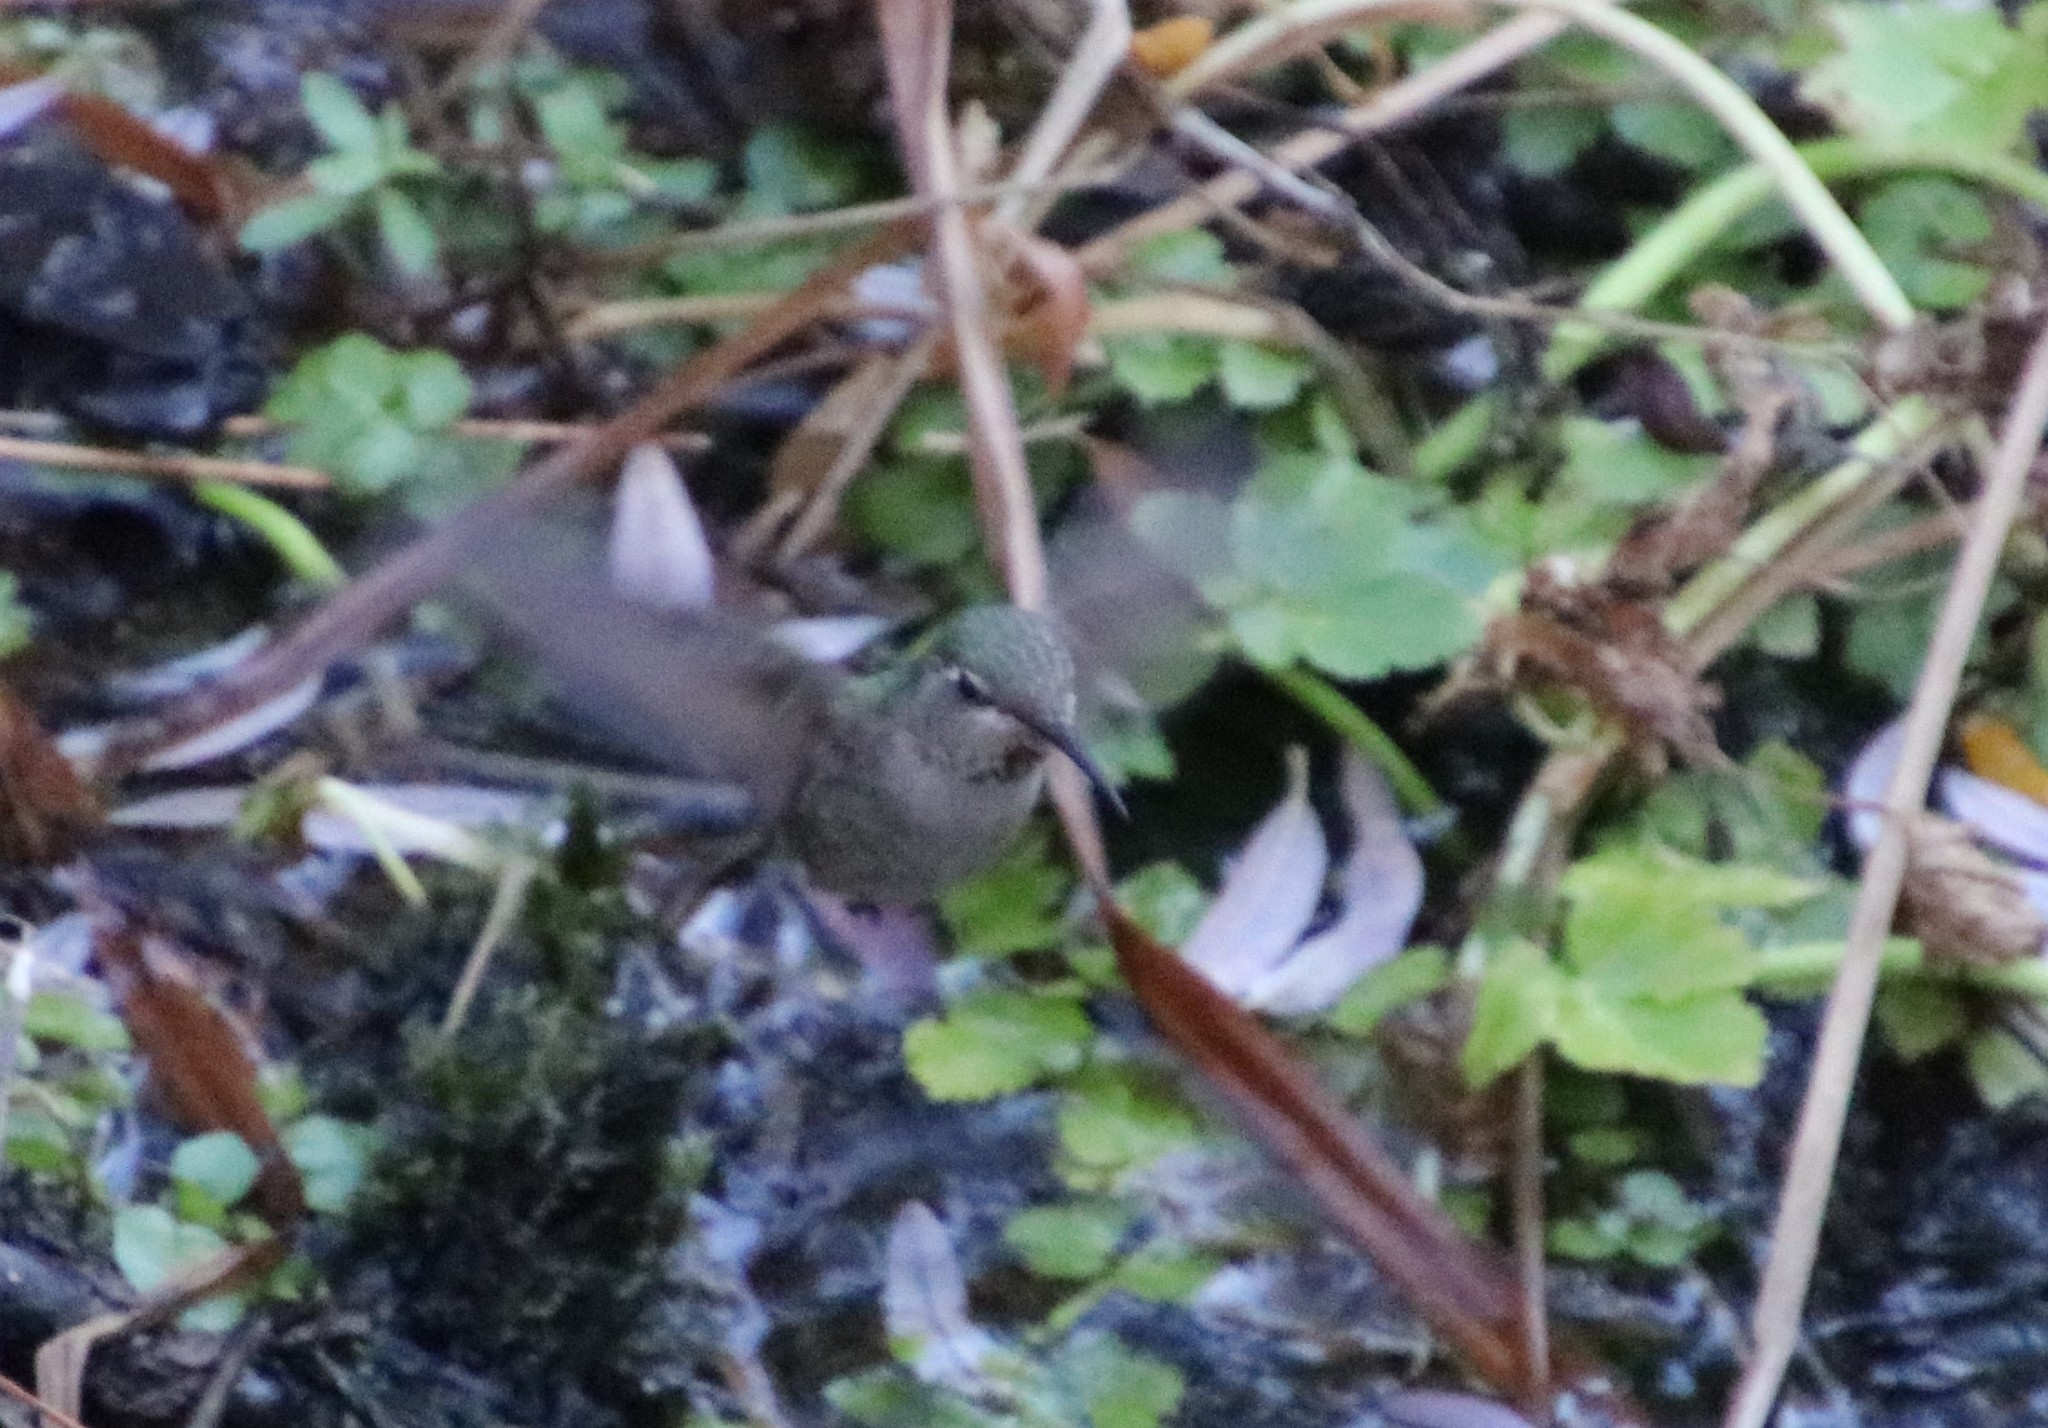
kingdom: Animalia
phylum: Chordata
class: Aves
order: Apodiformes
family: Trochilidae
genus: Calypte
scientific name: Calypte anna
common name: Anna's hummingbird
